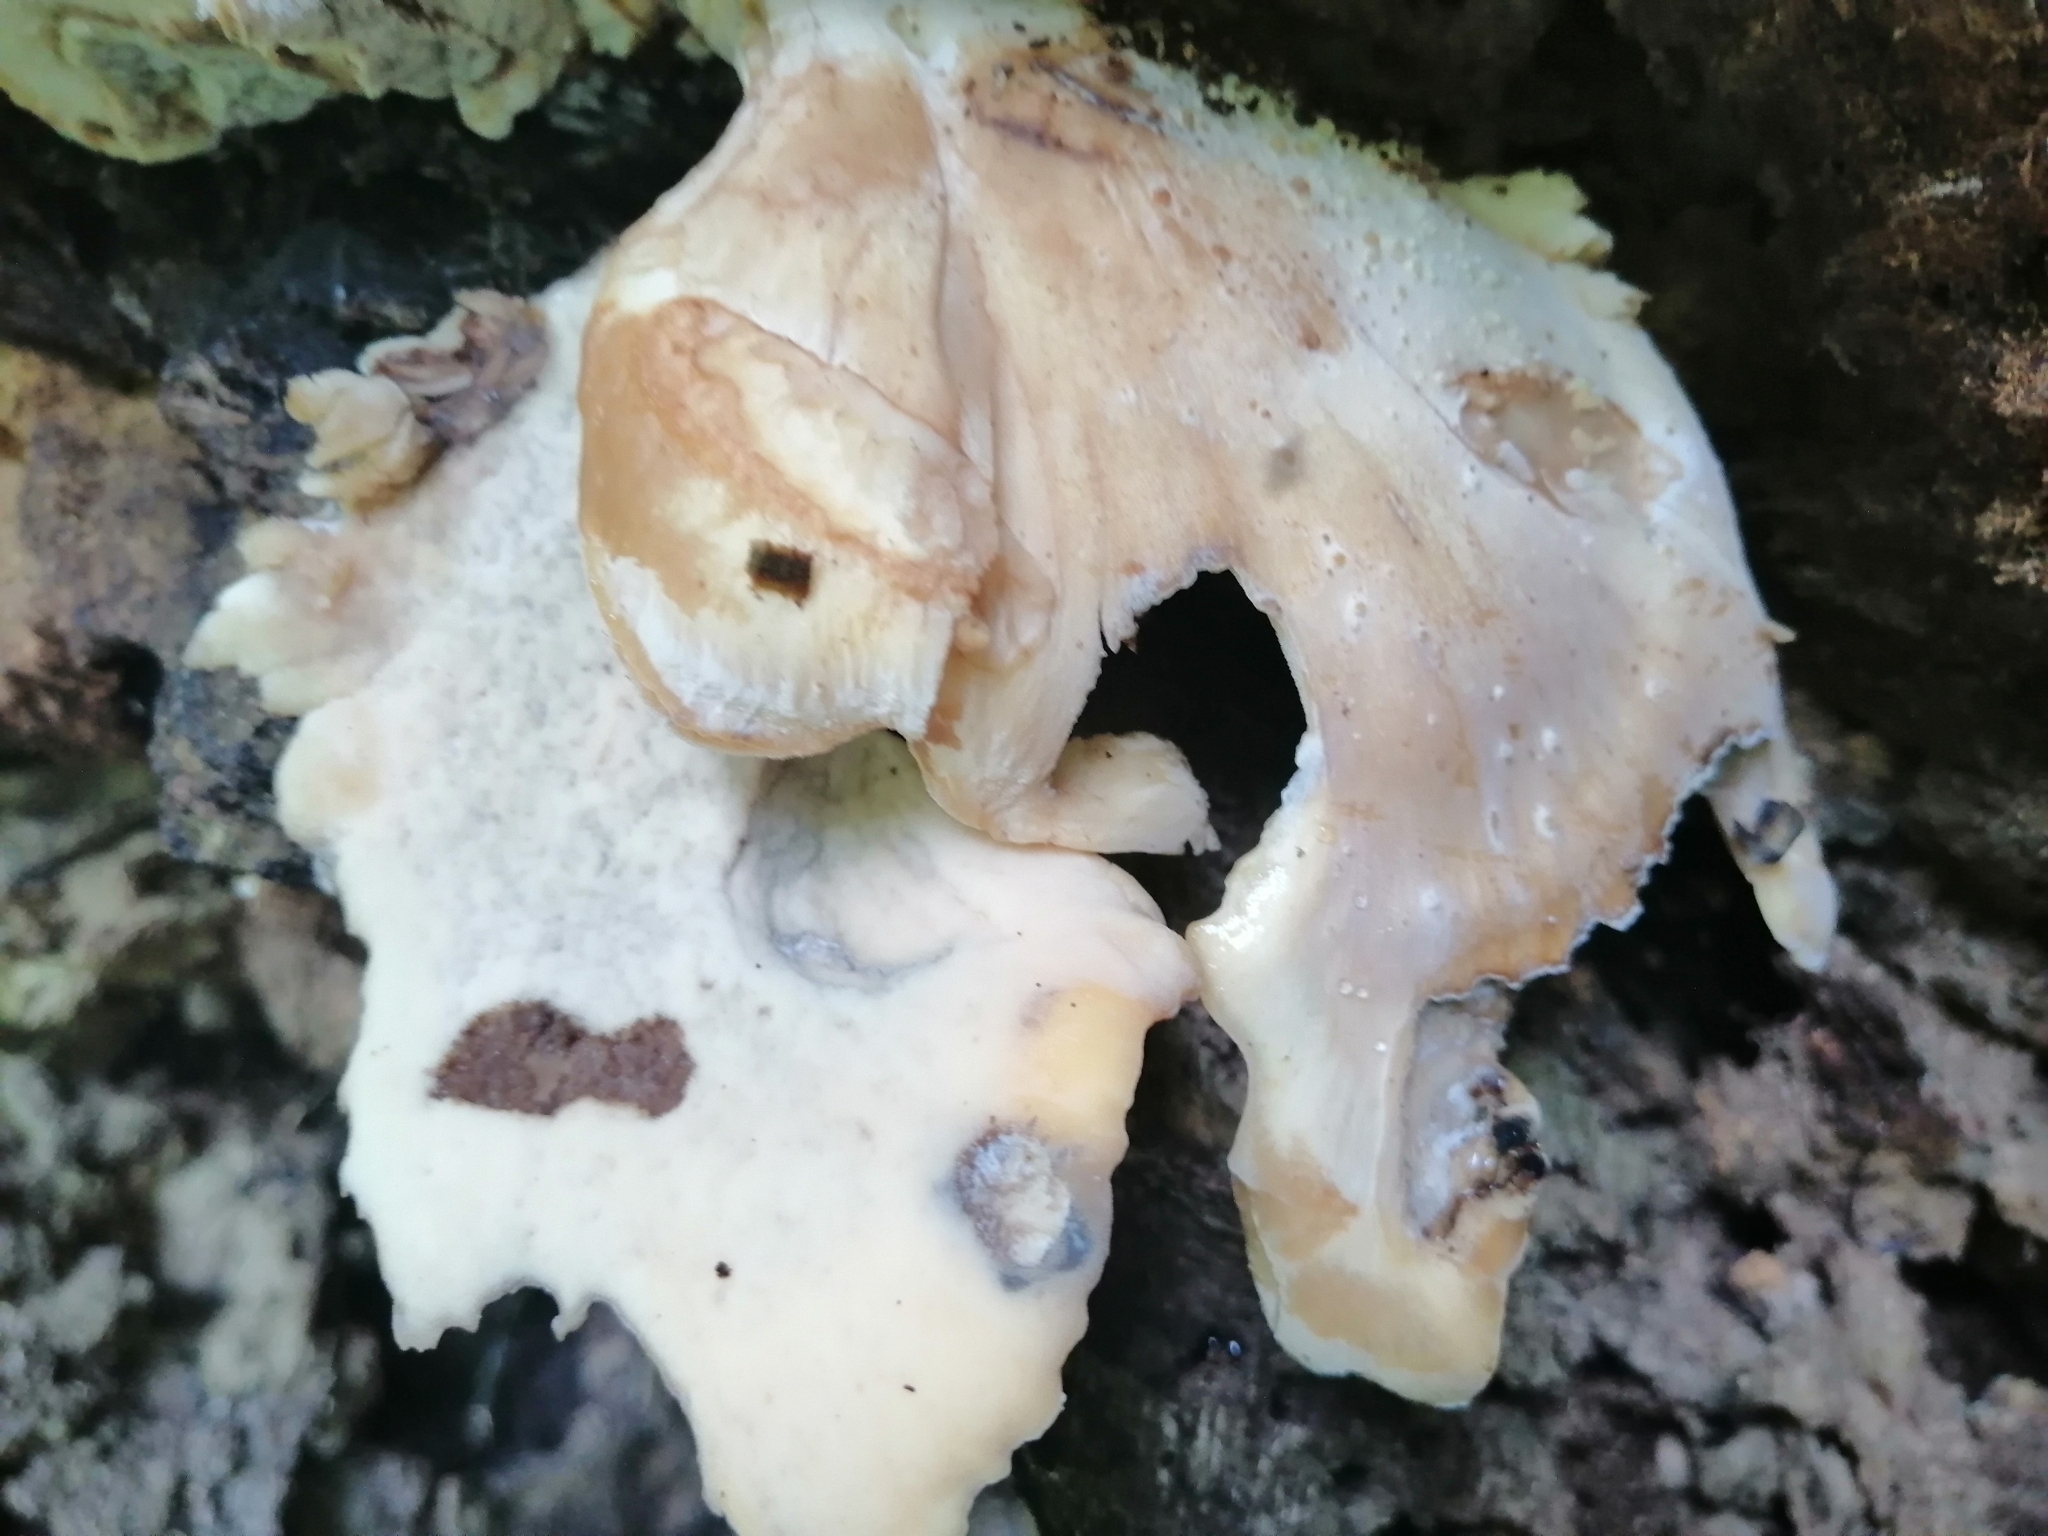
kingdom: Fungi
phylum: Basidiomycota
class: Agaricomycetes
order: Polyporales
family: Meripilaceae
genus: Meripilus
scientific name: Meripilus giganteus
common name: Giant polypore
